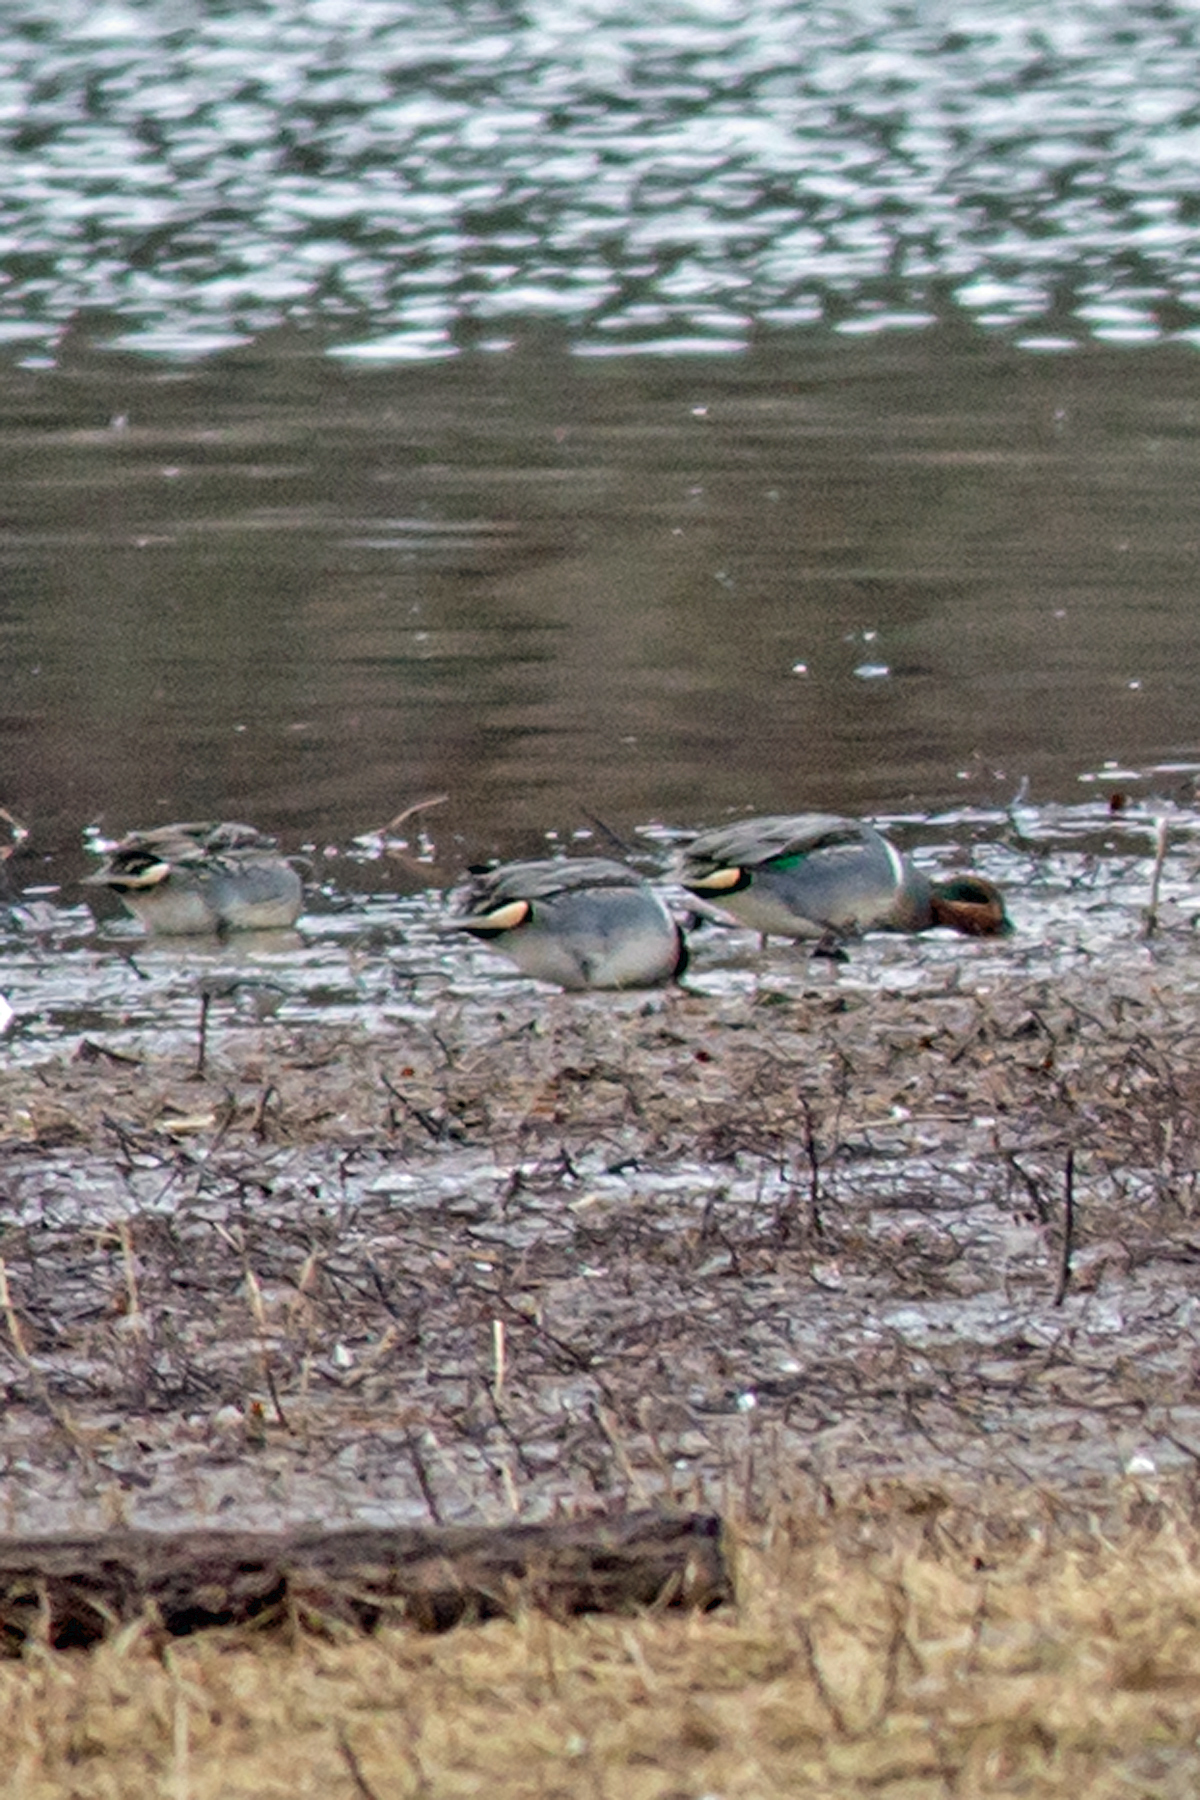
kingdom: Animalia
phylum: Chordata
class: Aves
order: Anseriformes
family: Anatidae
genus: Anas
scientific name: Anas crecca
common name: Eurasian teal
